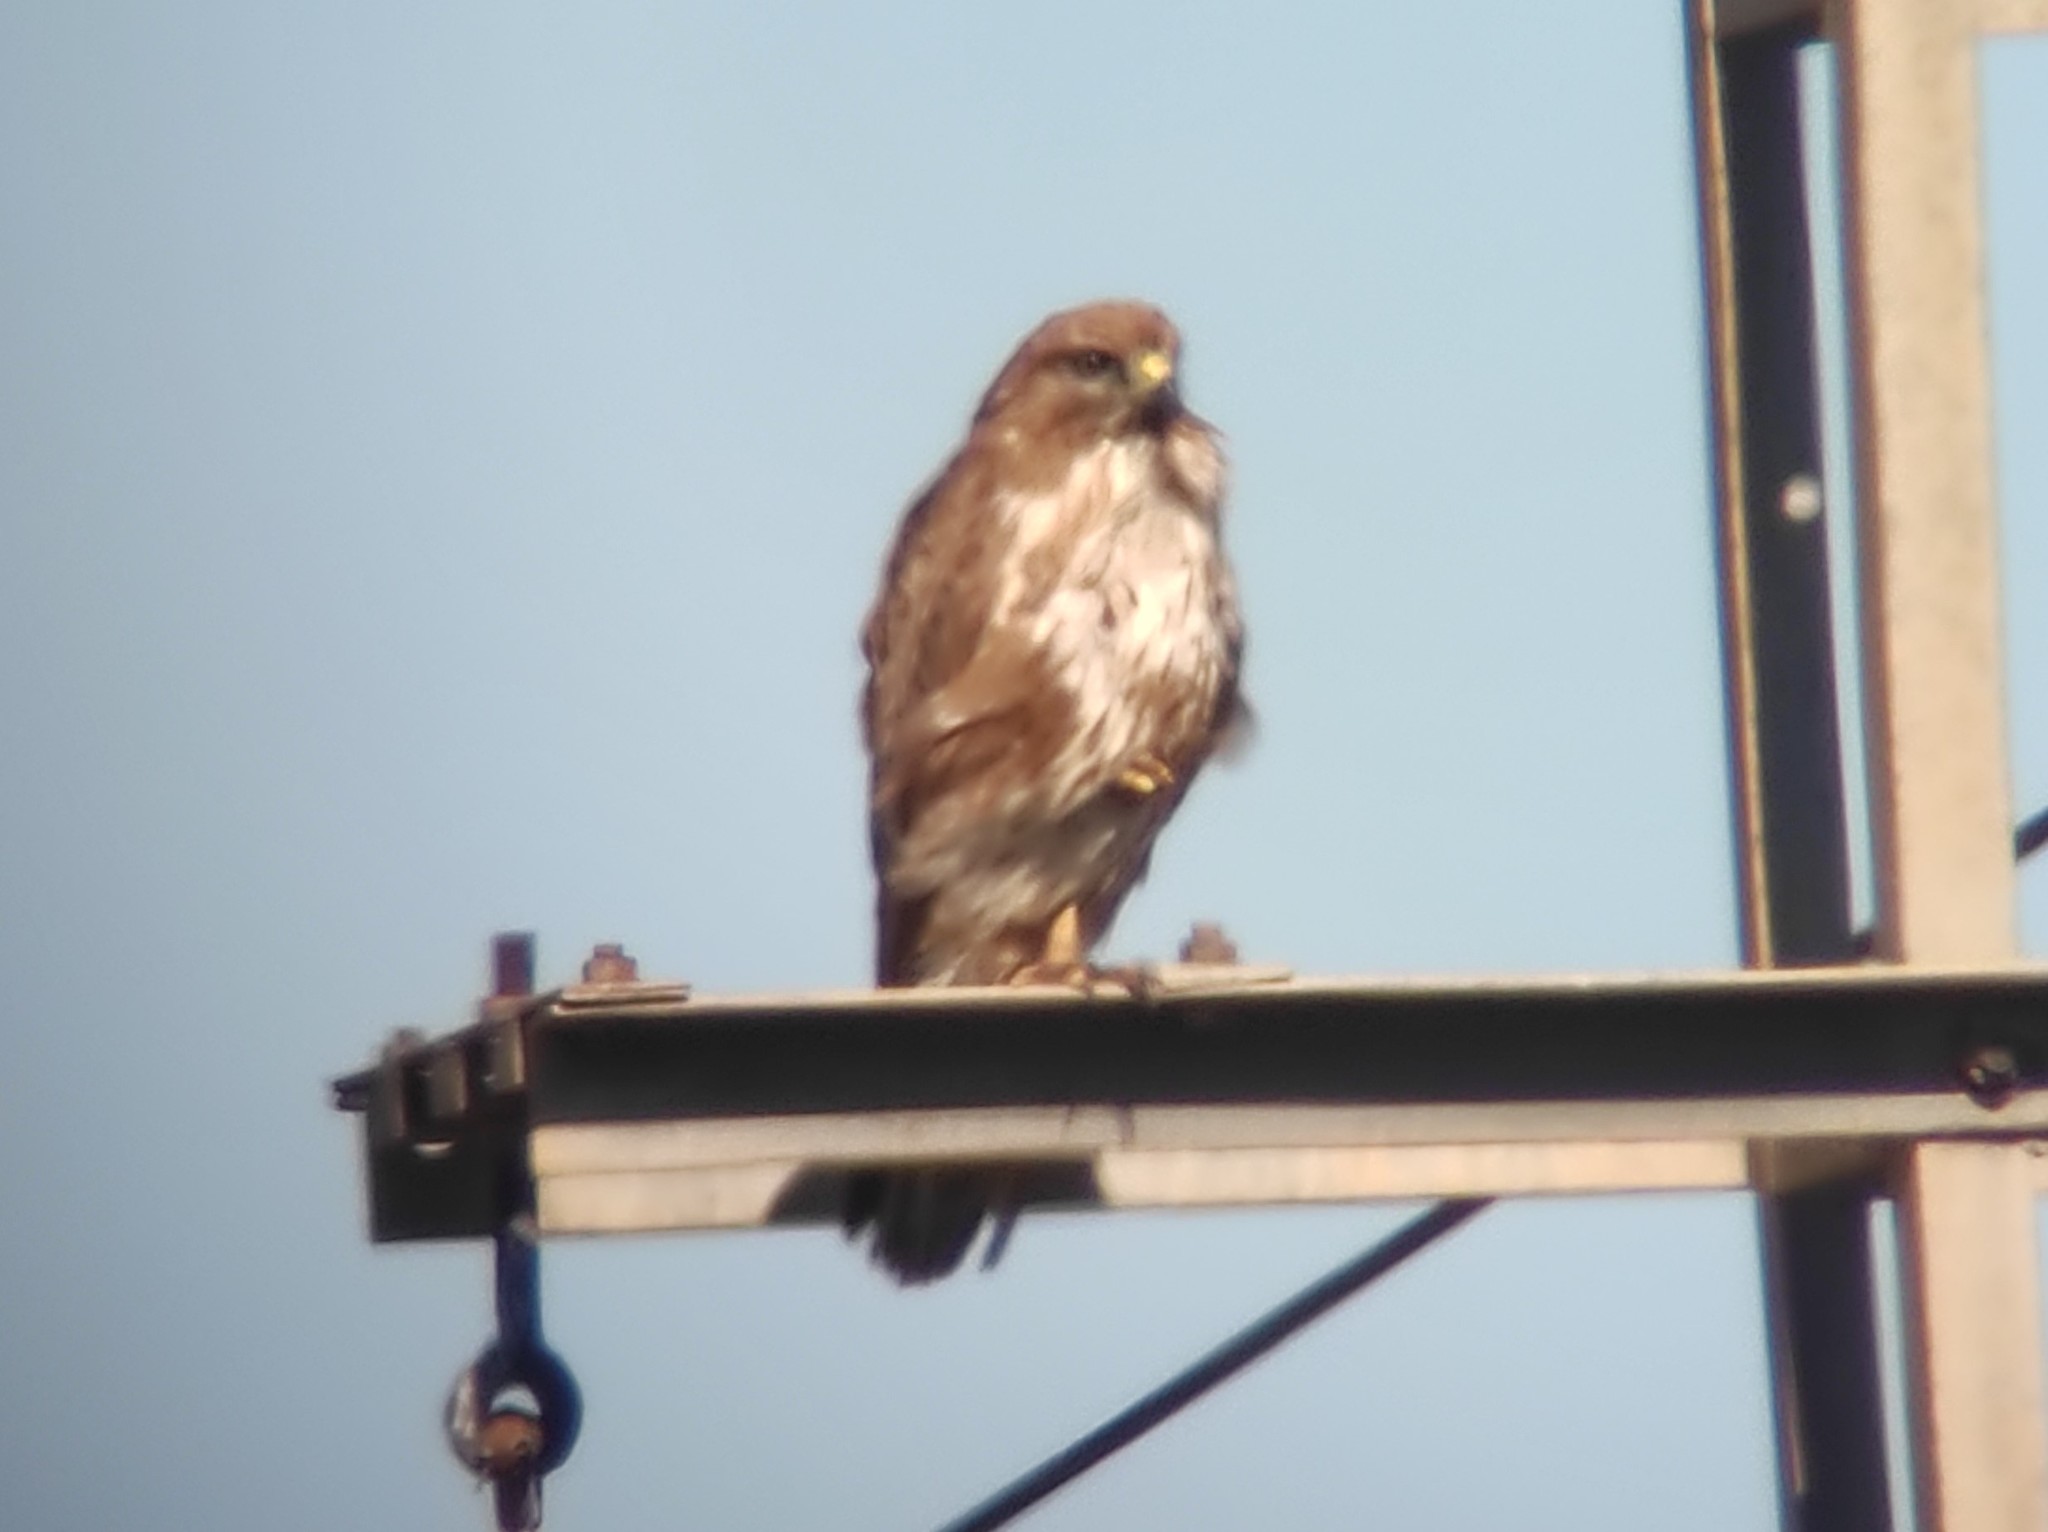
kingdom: Animalia
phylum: Chordata
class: Aves
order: Accipitriformes
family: Accipitridae
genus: Buteo
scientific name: Buteo buteo
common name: Common buzzard
